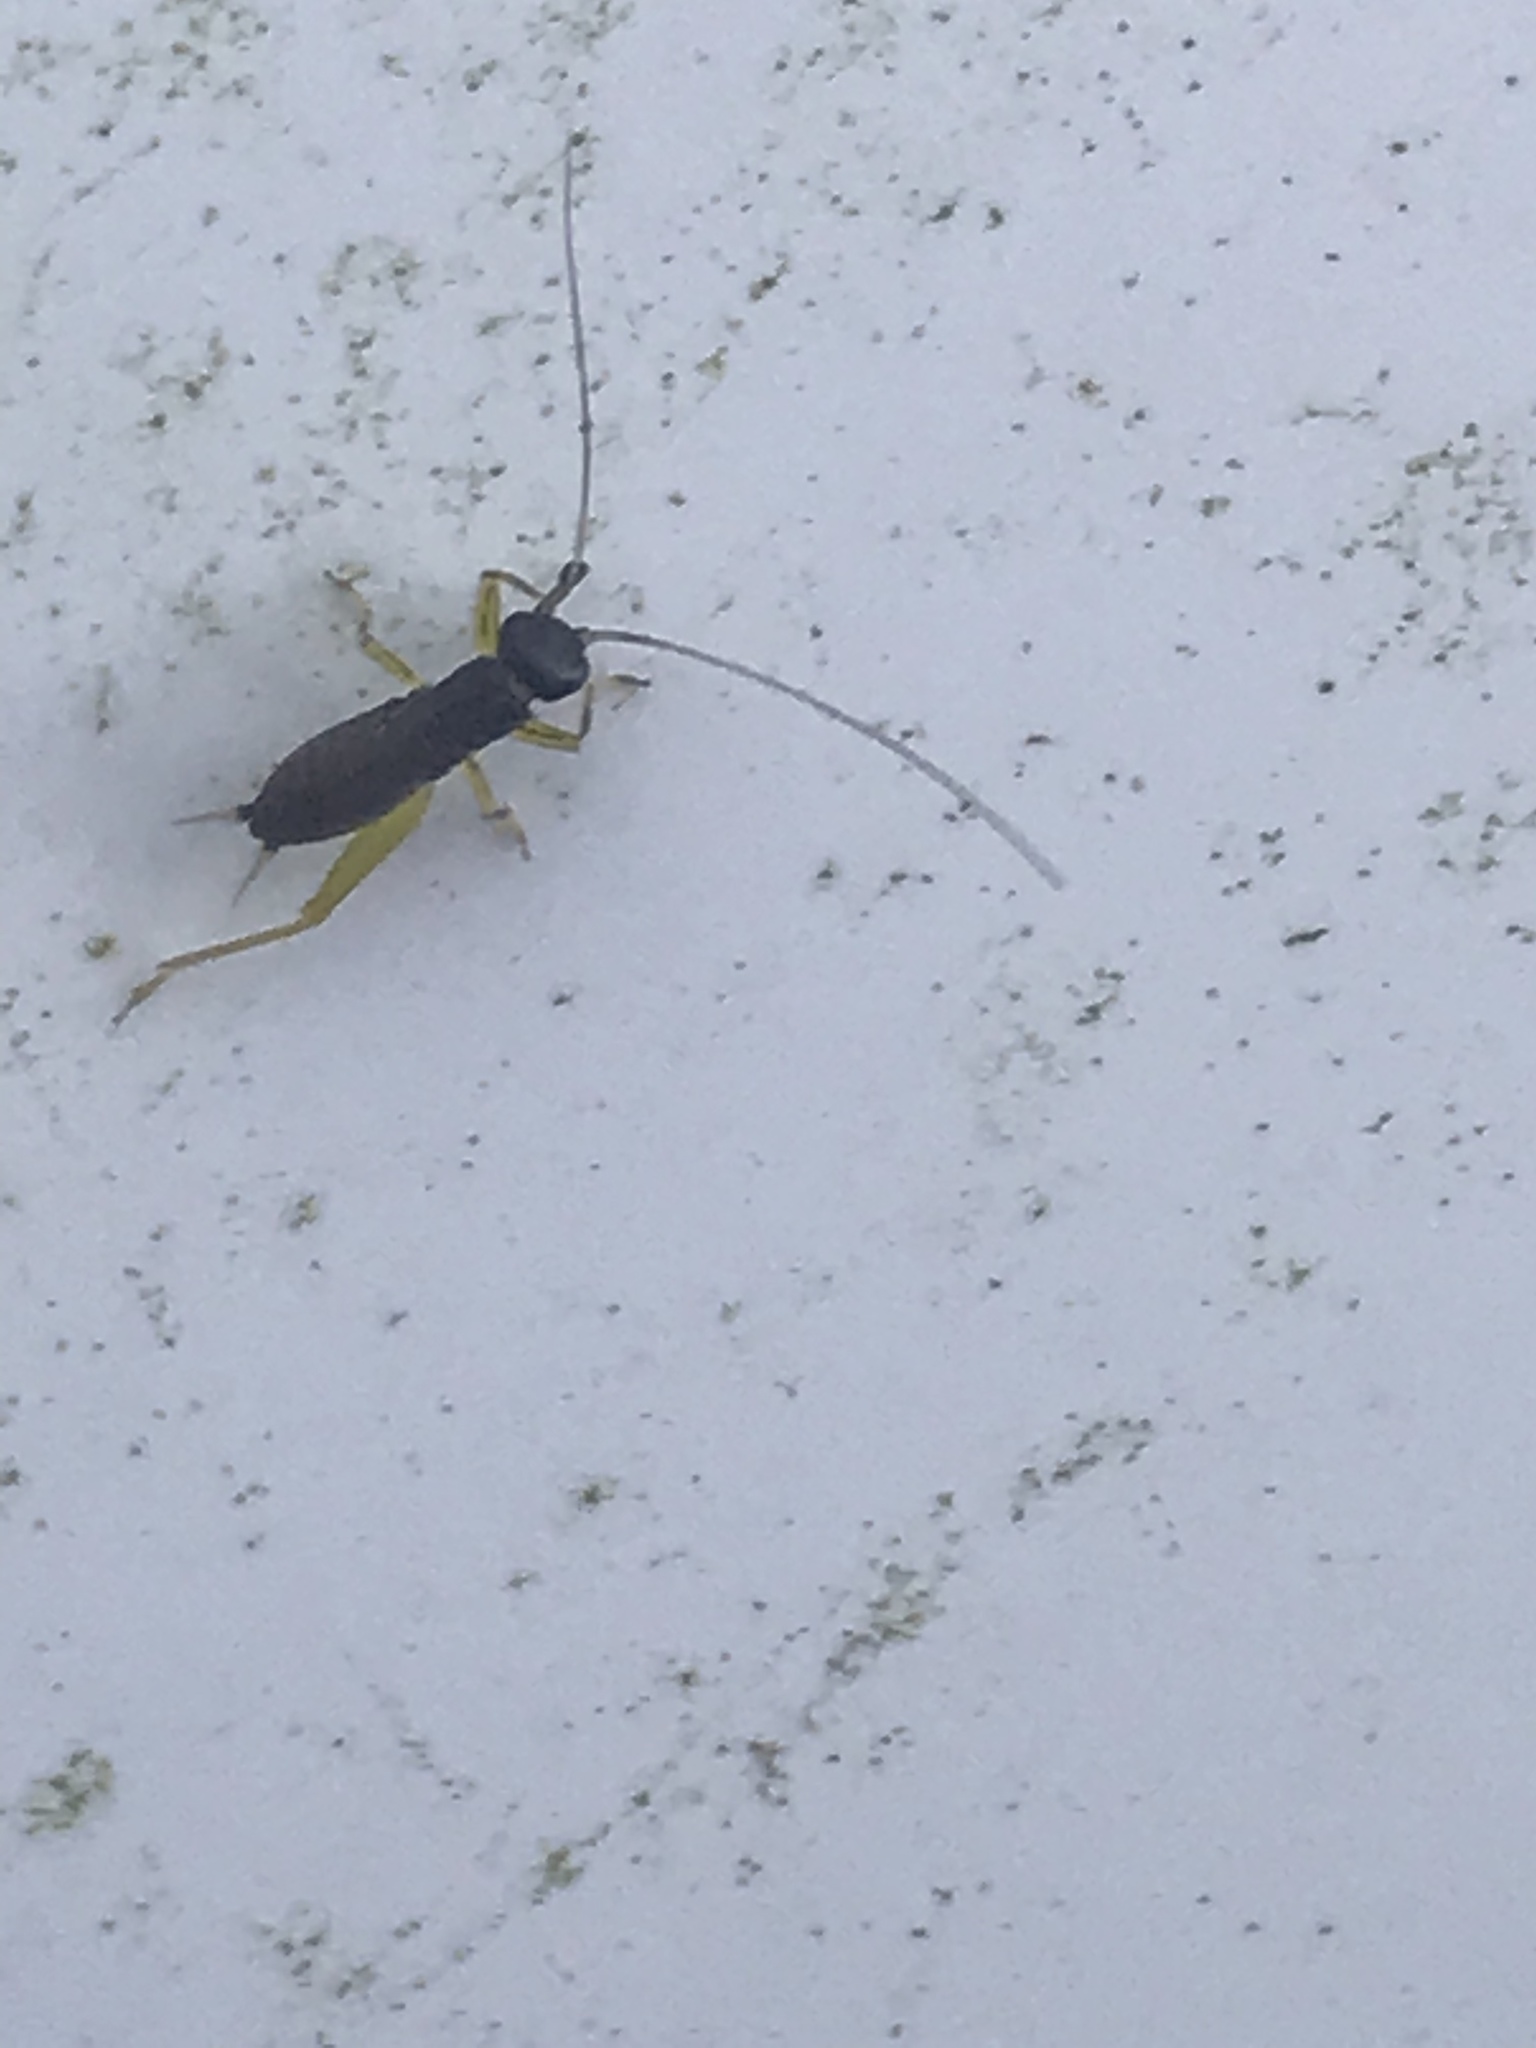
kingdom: Animalia
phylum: Arthropoda
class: Insecta
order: Orthoptera
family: Trigonidiidae
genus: Phyllopalpus
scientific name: Phyllopalpus pulchellus
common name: Handsome trig
